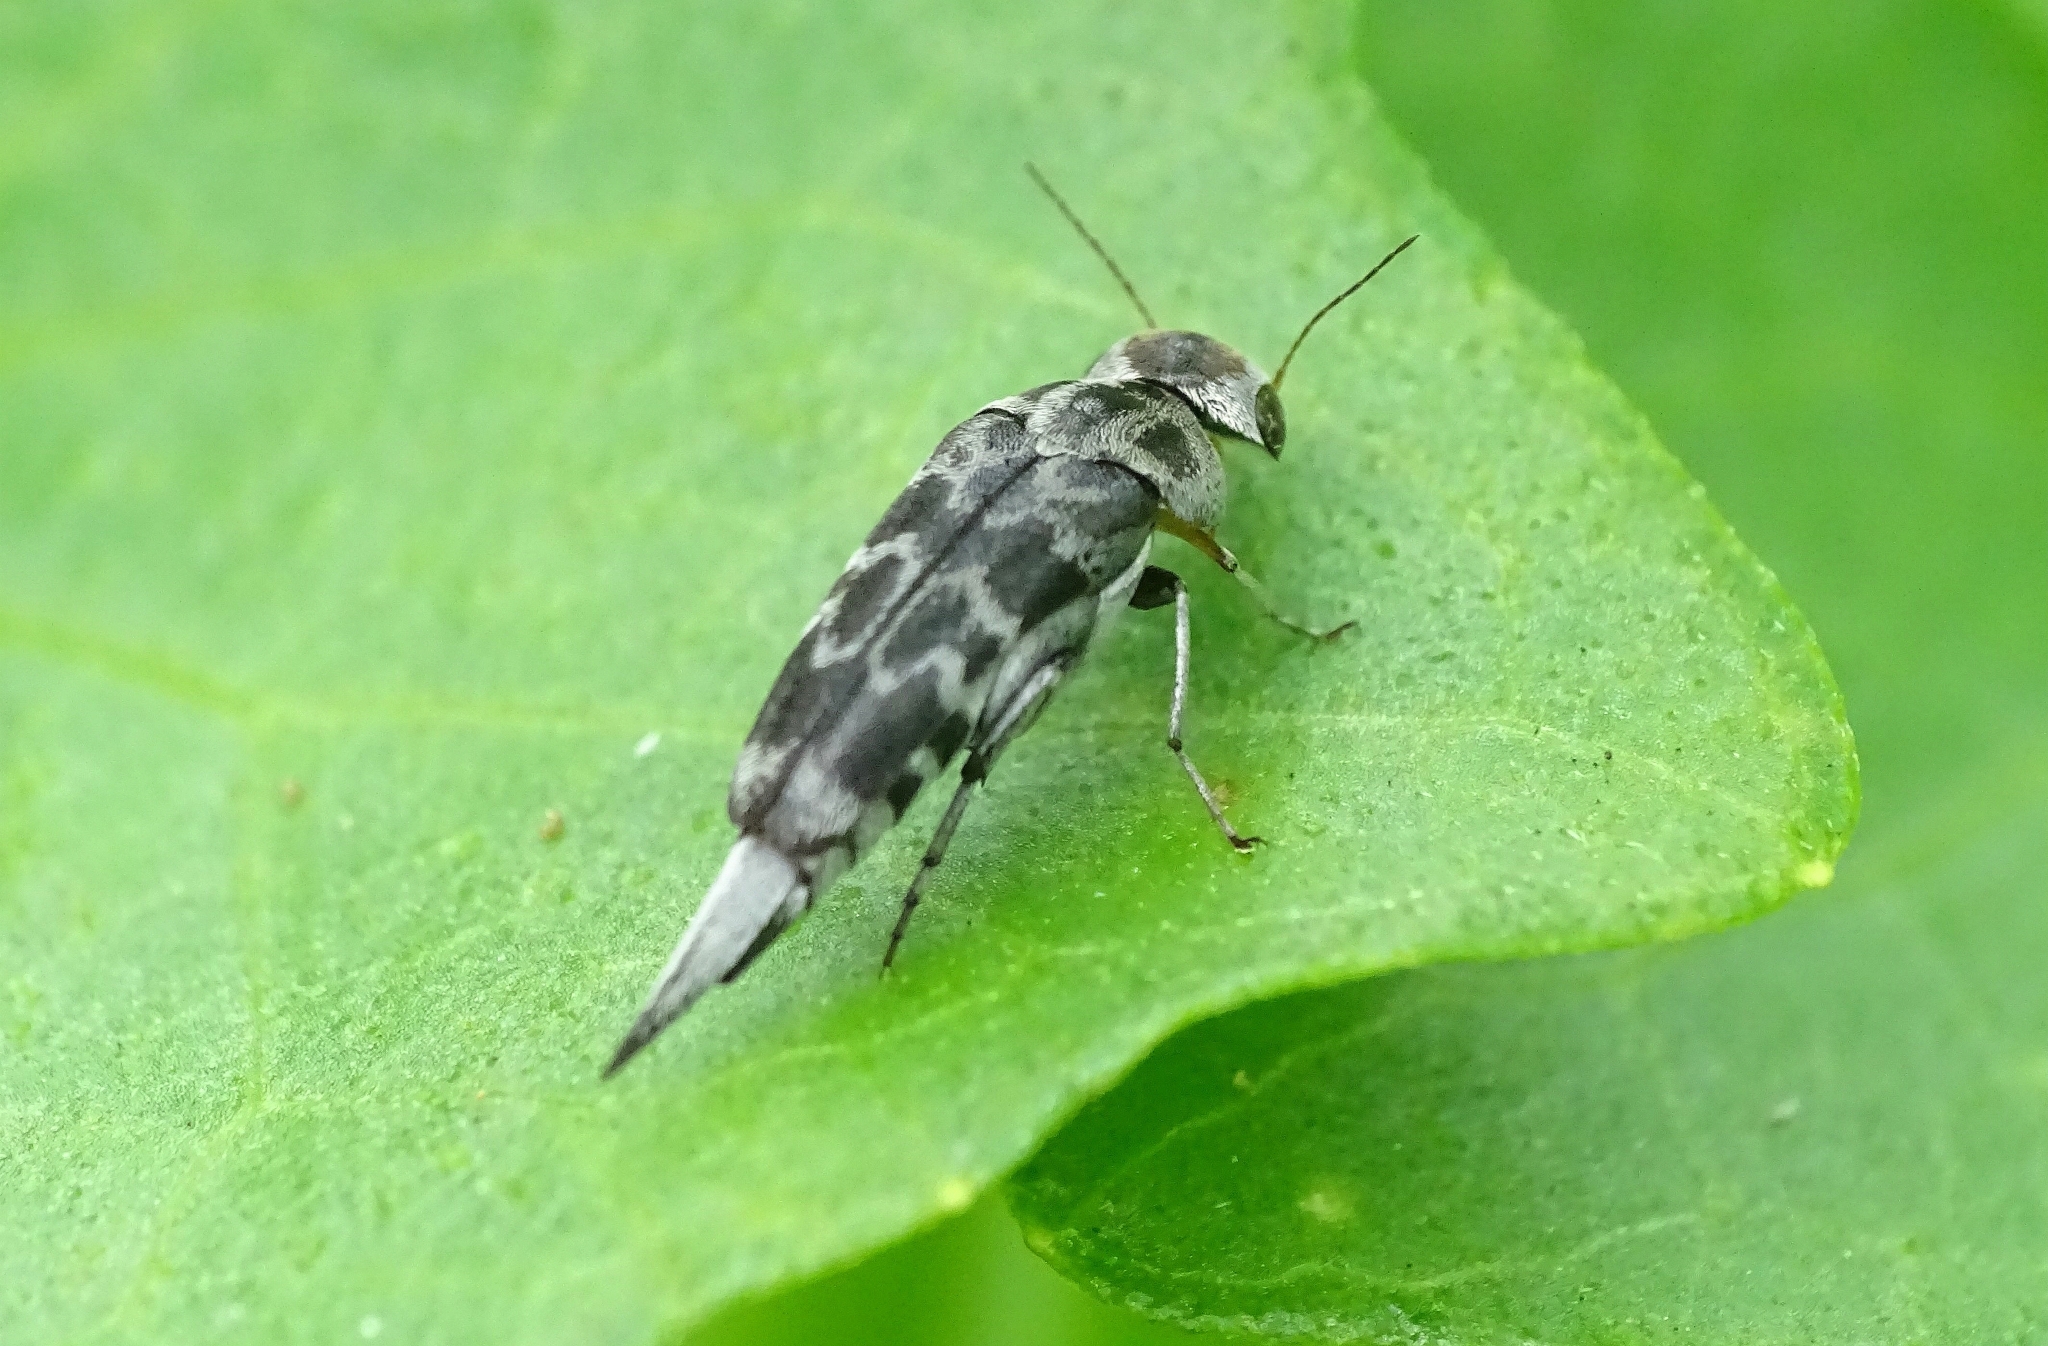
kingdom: Animalia
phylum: Arthropoda
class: Insecta
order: Coleoptera
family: Mordellidae
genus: Glipa
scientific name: Glipa
